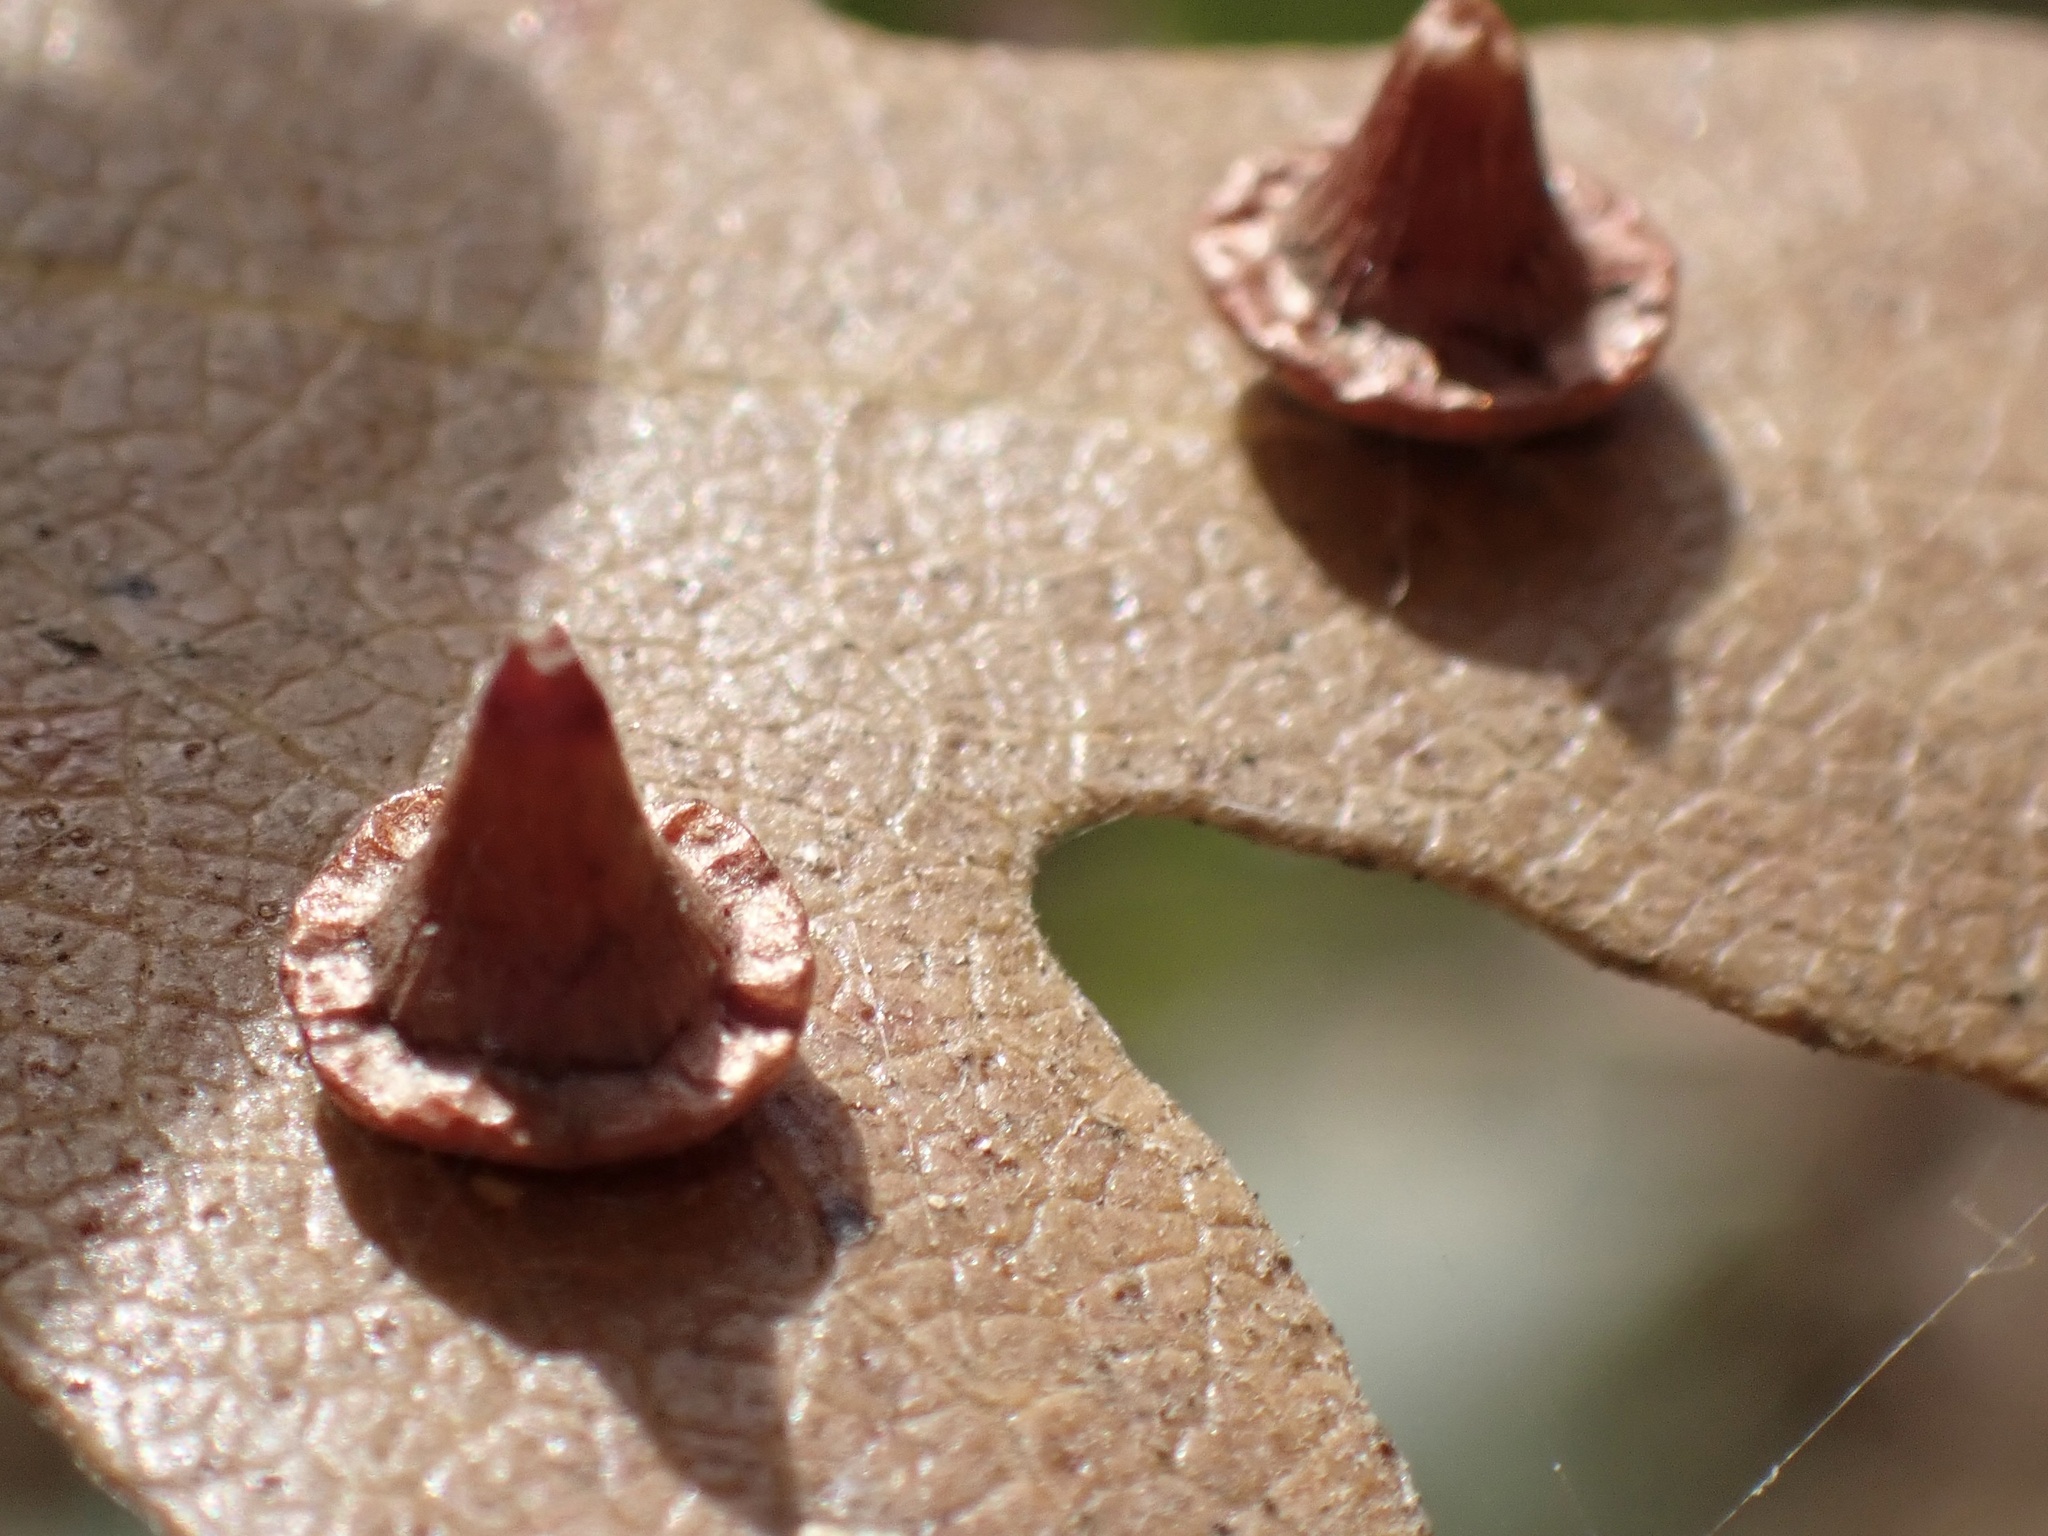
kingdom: Animalia
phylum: Arthropoda
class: Insecta
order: Hymenoptera
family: Cynipidae
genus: Andricus
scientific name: Andricus
